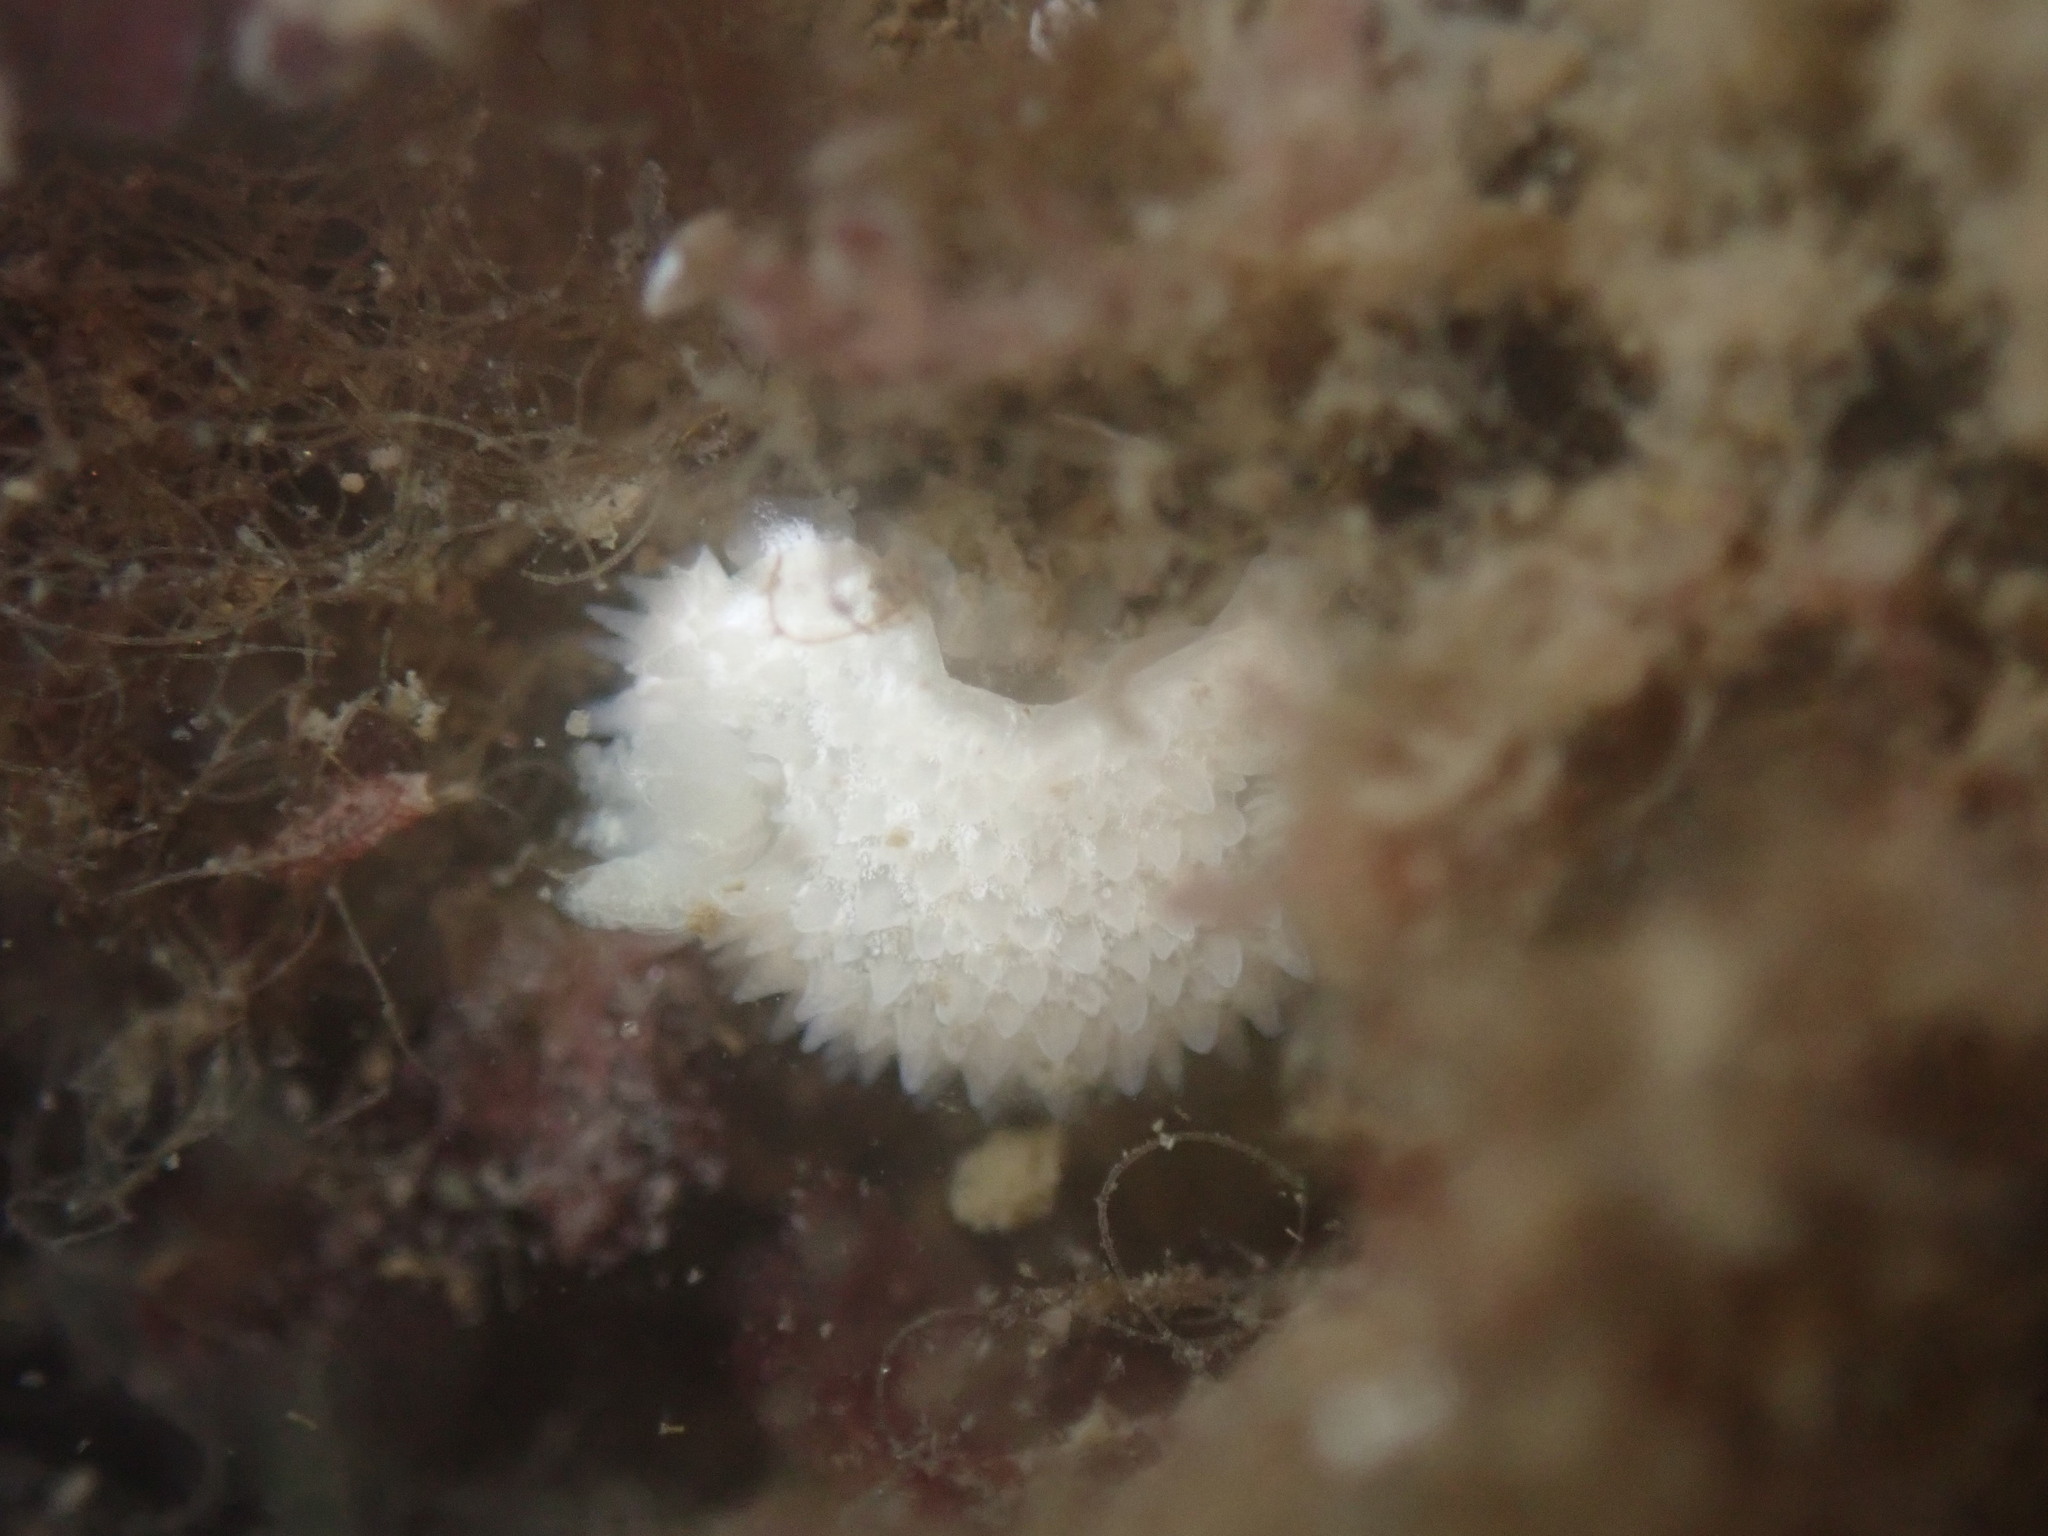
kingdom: Animalia
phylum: Mollusca
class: Gastropoda
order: Nudibranchia
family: Calycidorididae
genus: Diaphorodoris
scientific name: Diaphorodoris lirulatocauda
